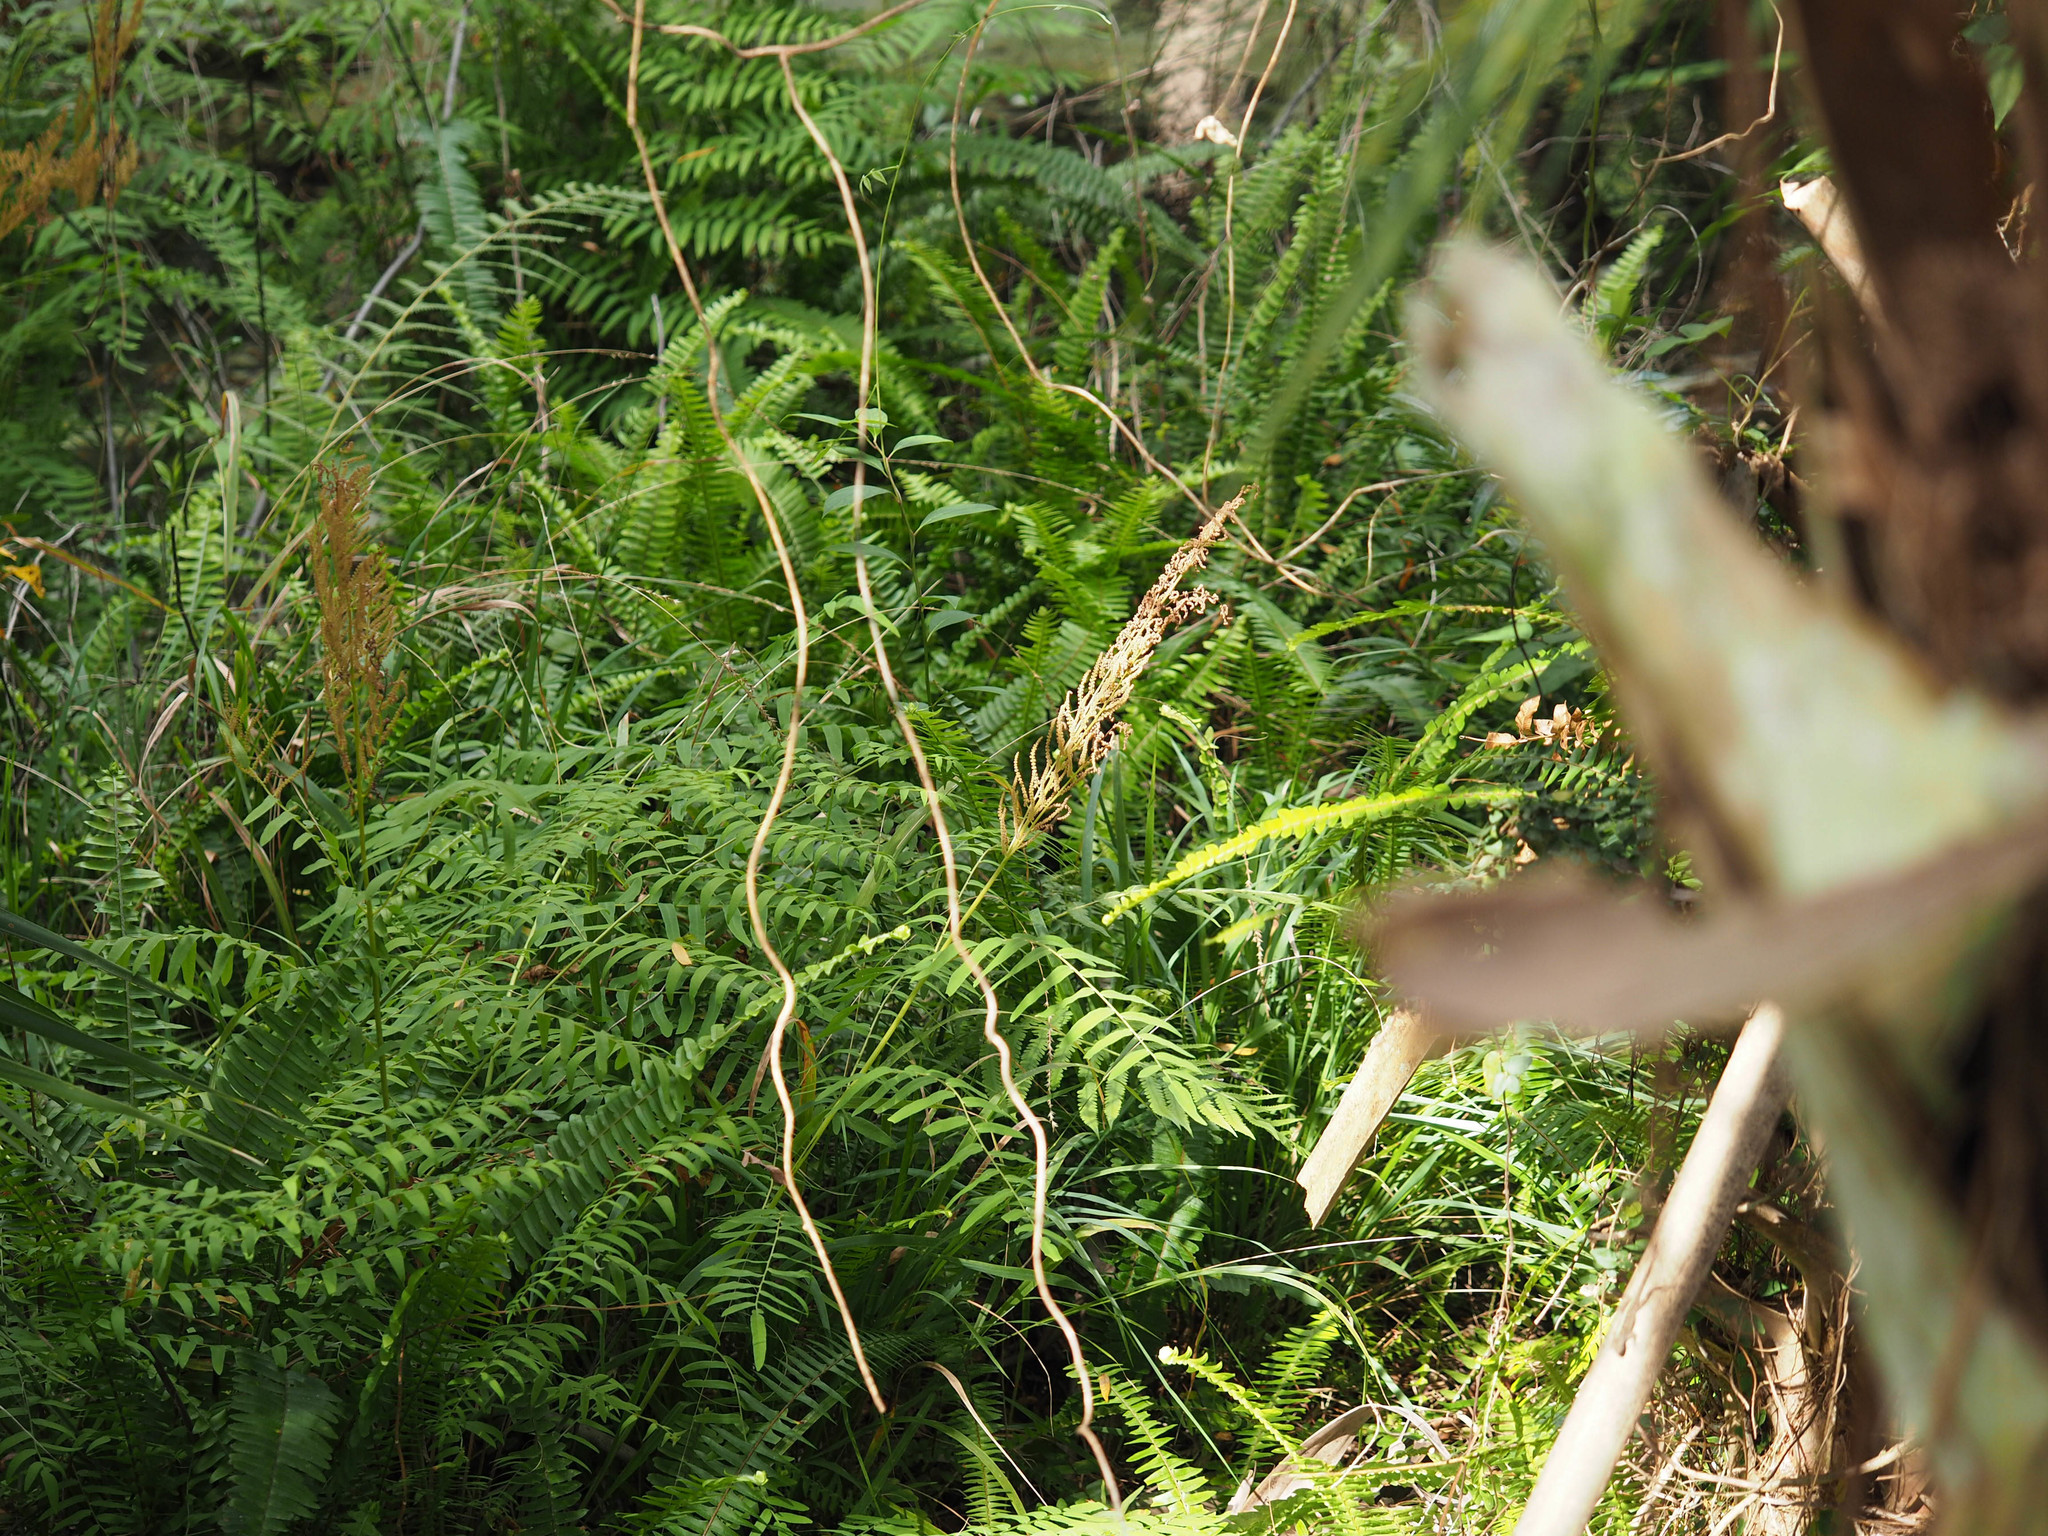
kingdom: Plantae
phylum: Tracheophyta
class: Polypodiopsida
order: Osmundales
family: Osmundaceae
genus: Osmunda
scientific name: Osmunda spectabilis
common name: American royal fern
